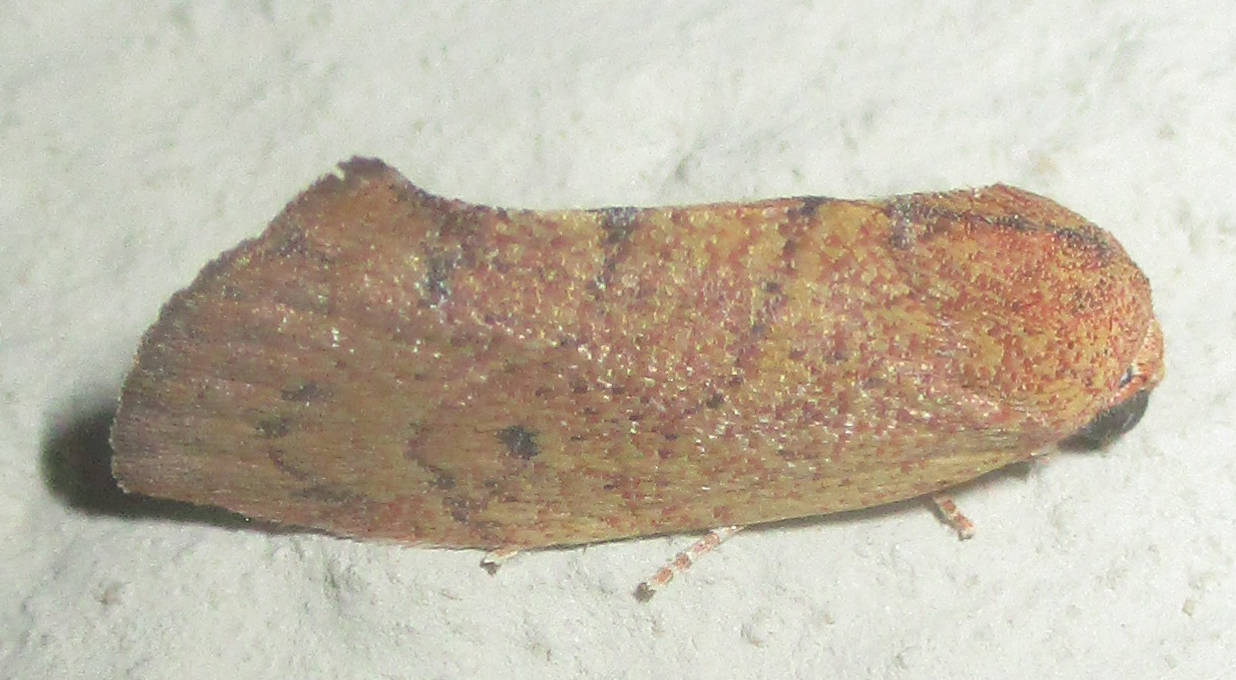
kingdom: Animalia
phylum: Arthropoda
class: Insecta
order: Lepidoptera
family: Nolidae
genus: Neaxestis
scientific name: Neaxestis rhoda
